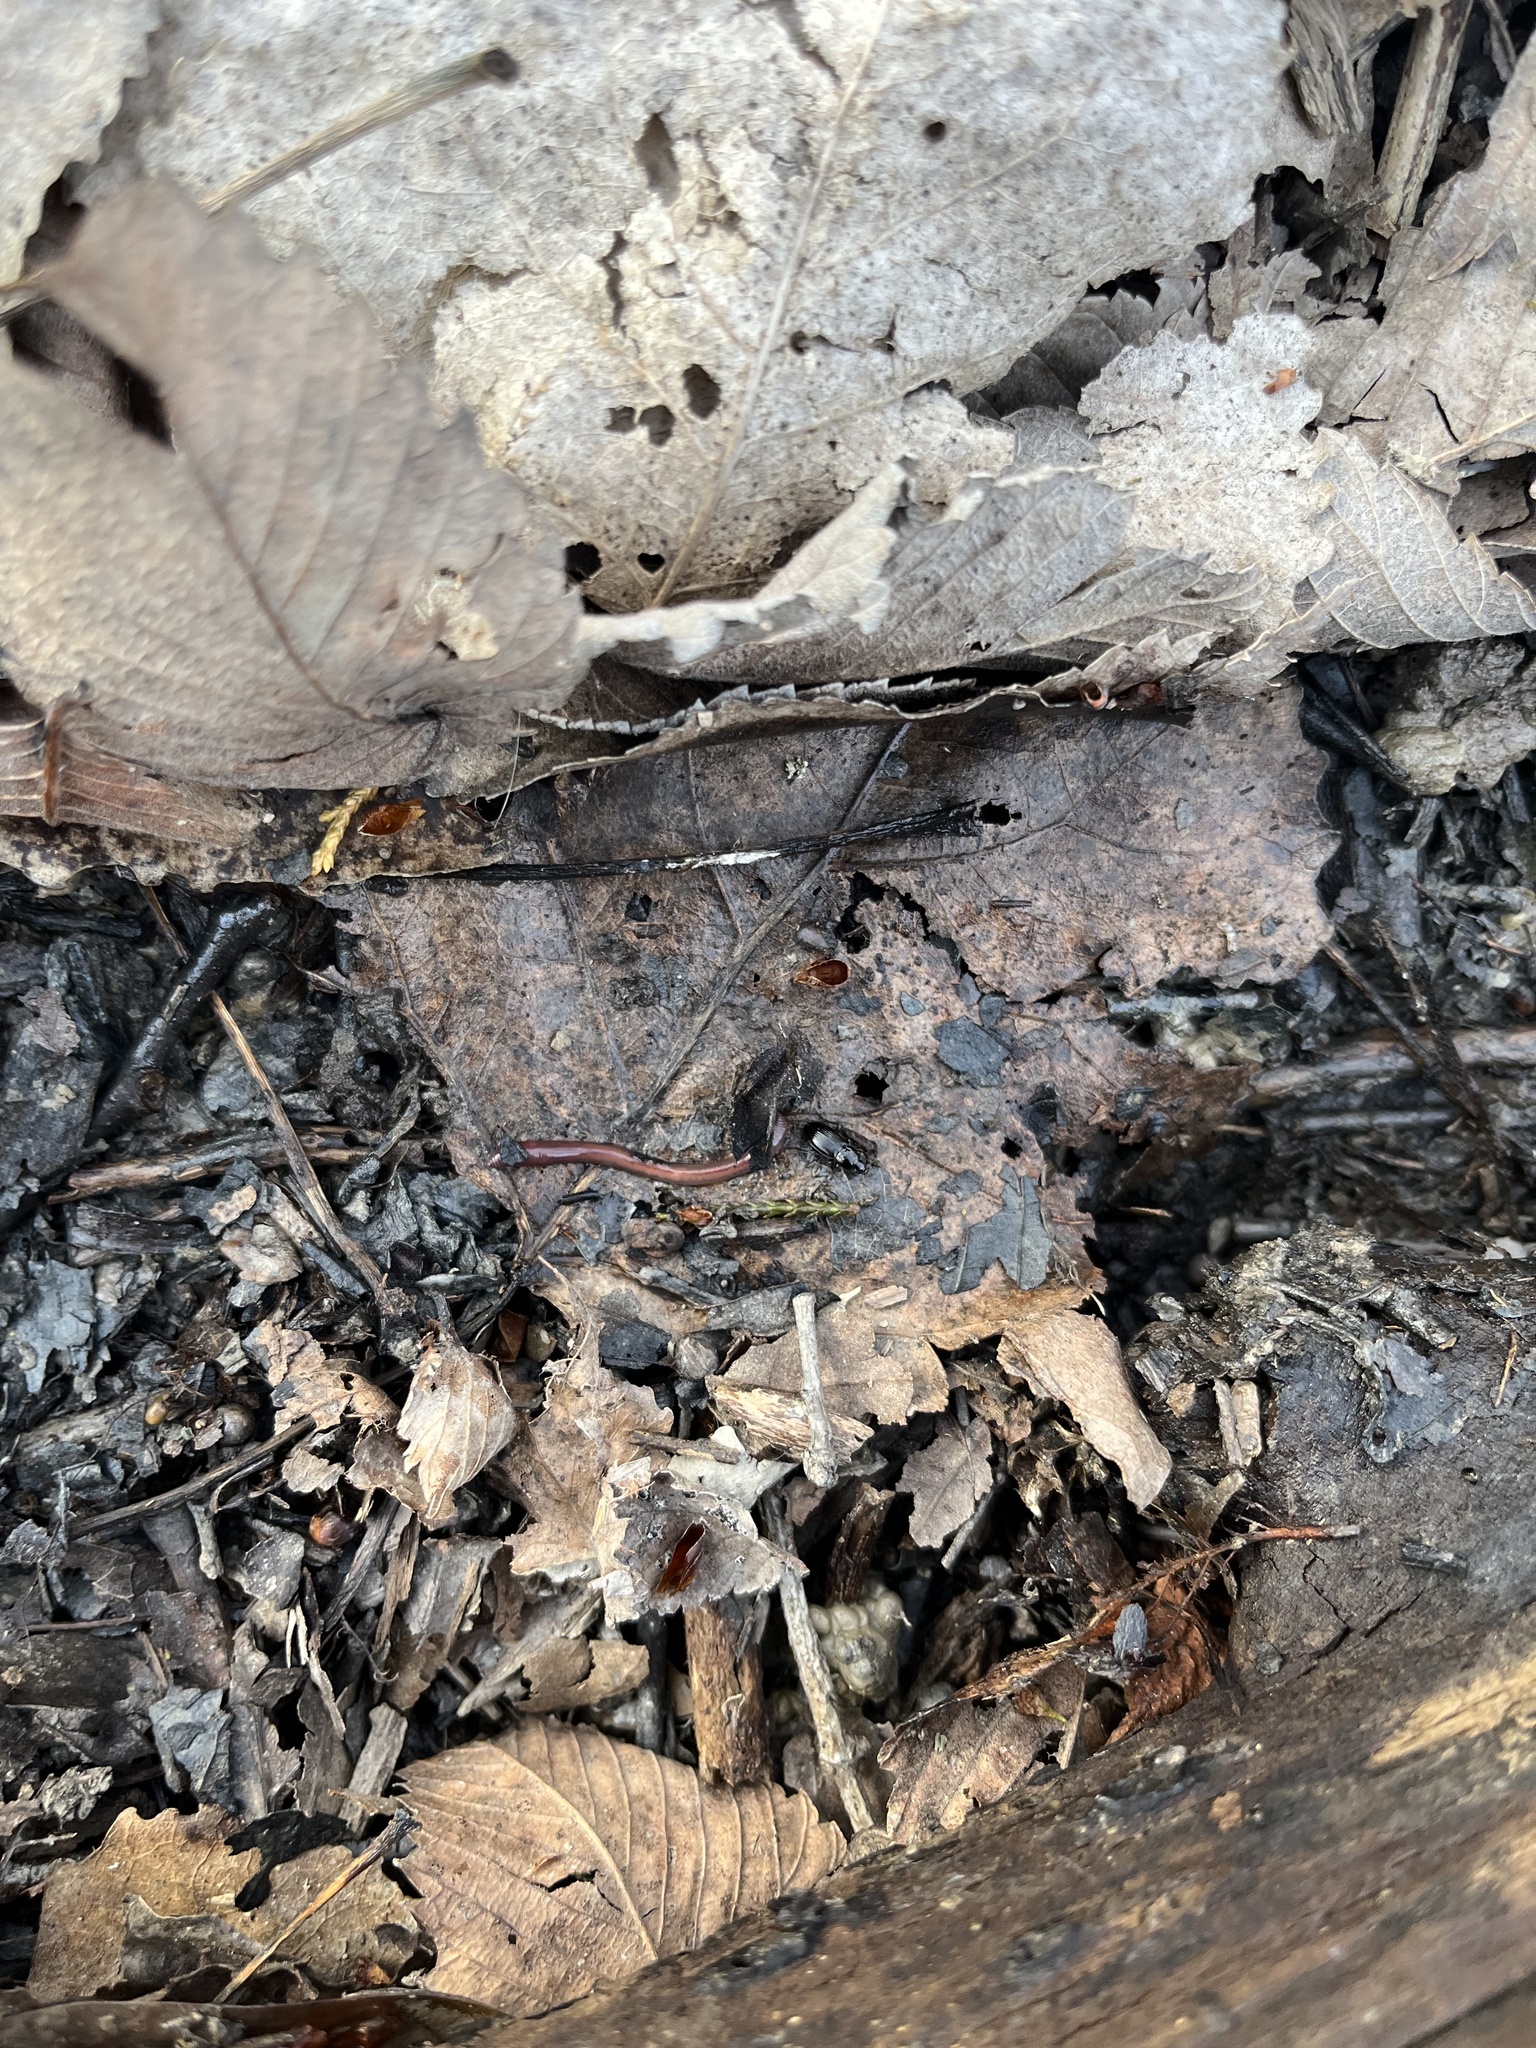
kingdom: Animalia
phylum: Arthropoda
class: Insecta
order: Coleoptera
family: Carabidae
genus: Pterostichus
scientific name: Pterostichus vernalis
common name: Spring harp ground beetle
